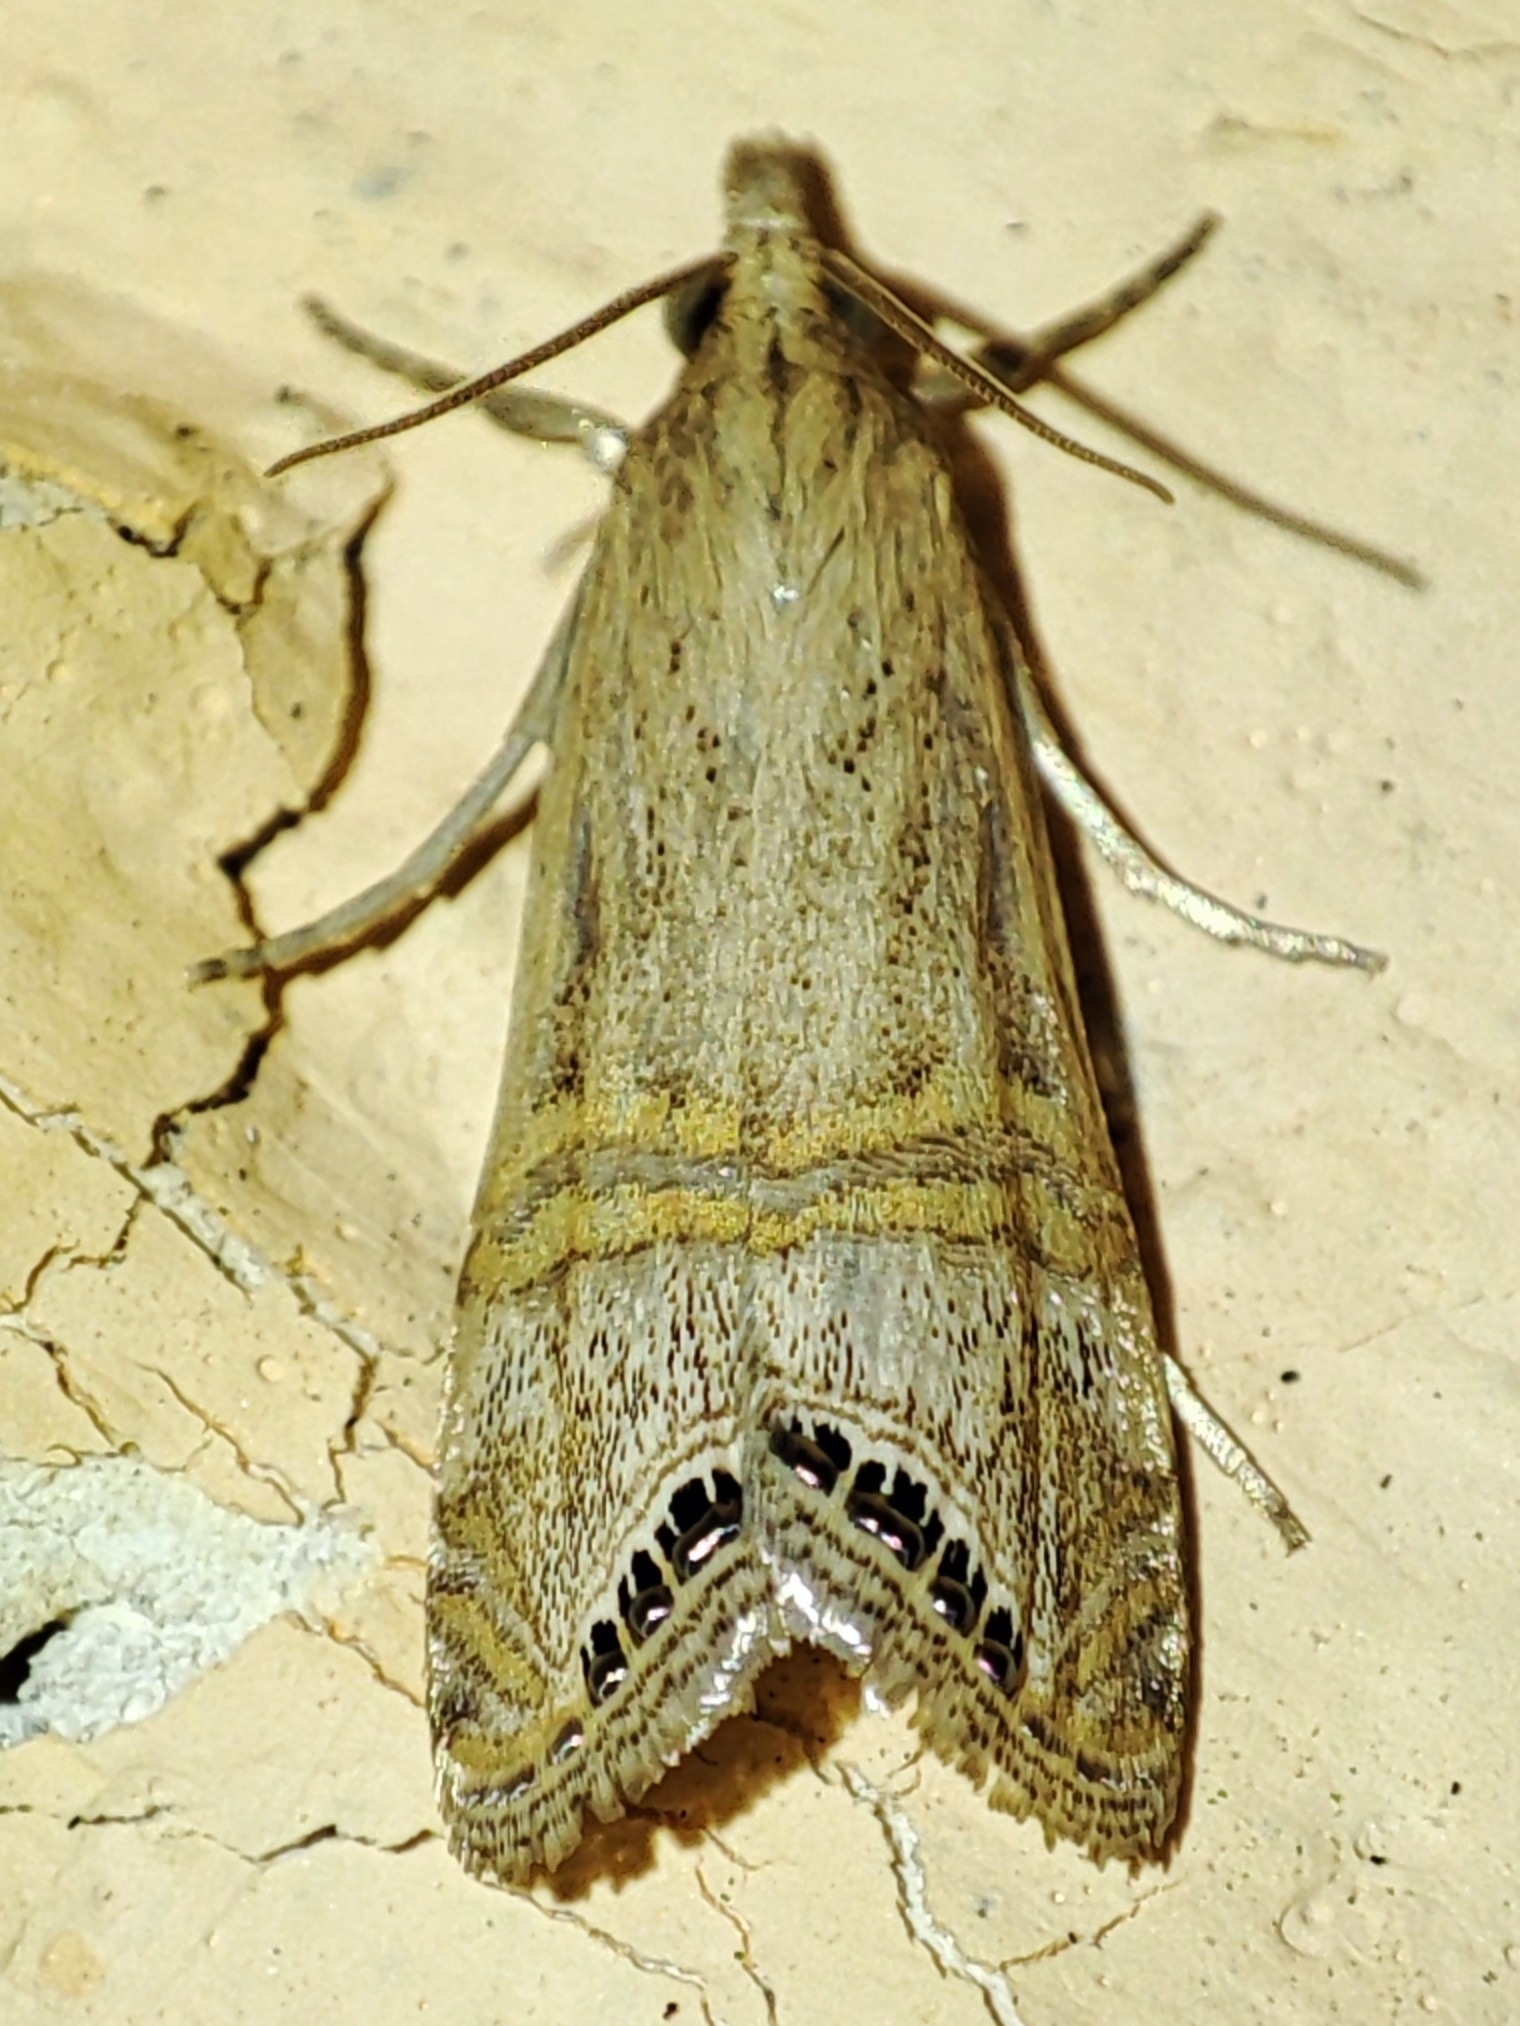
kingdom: Animalia
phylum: Arthropoda
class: Insecta
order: Lepidoptera
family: Crambidae
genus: Euchromius
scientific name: Euchromius ocellea
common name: Necklace veneer moth
